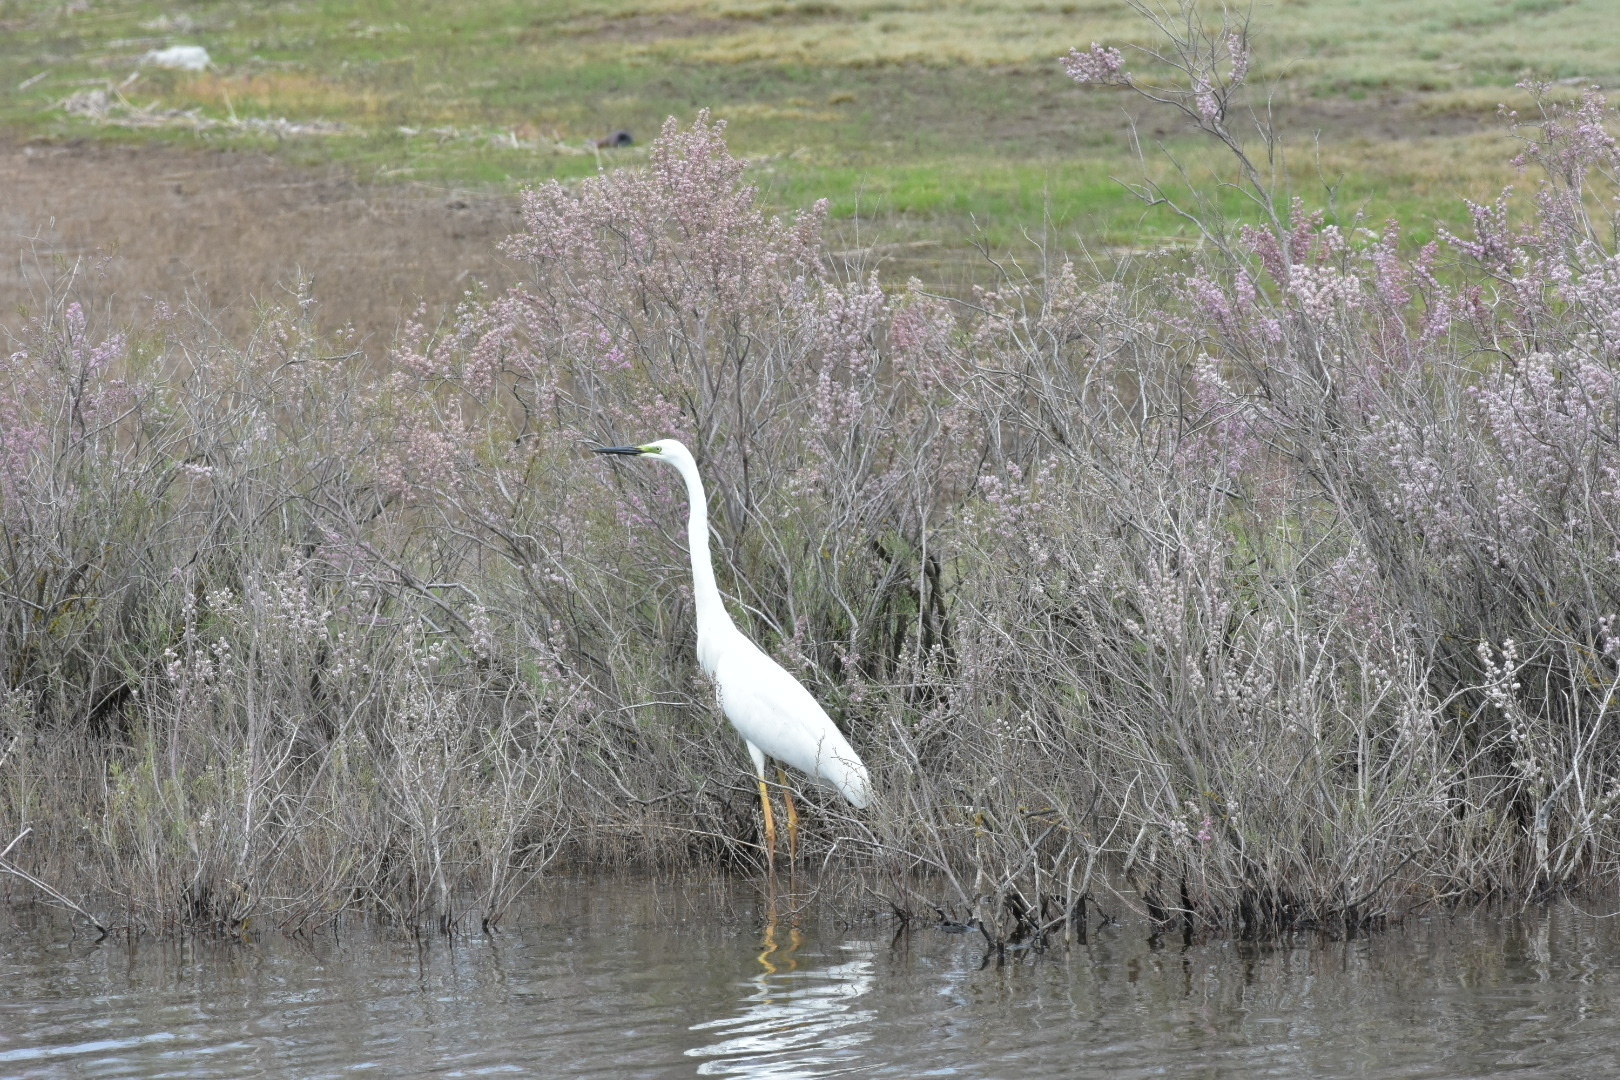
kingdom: Animalia
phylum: Chordata
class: Aves
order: Pelecaniformes
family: Ardeidae
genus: Ardea
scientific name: Ardea alba
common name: Great egret
